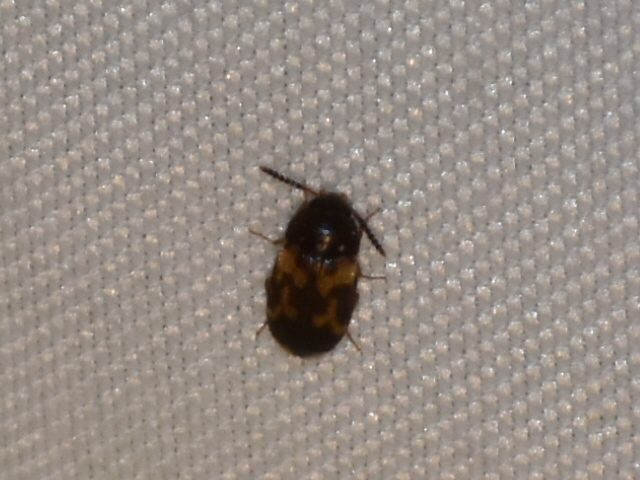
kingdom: Animalia
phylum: Arthropoda
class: Insecta
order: Coleoptera
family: Mycetophagidae
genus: Mycetophagus
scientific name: Mycetophagus serrulatus
